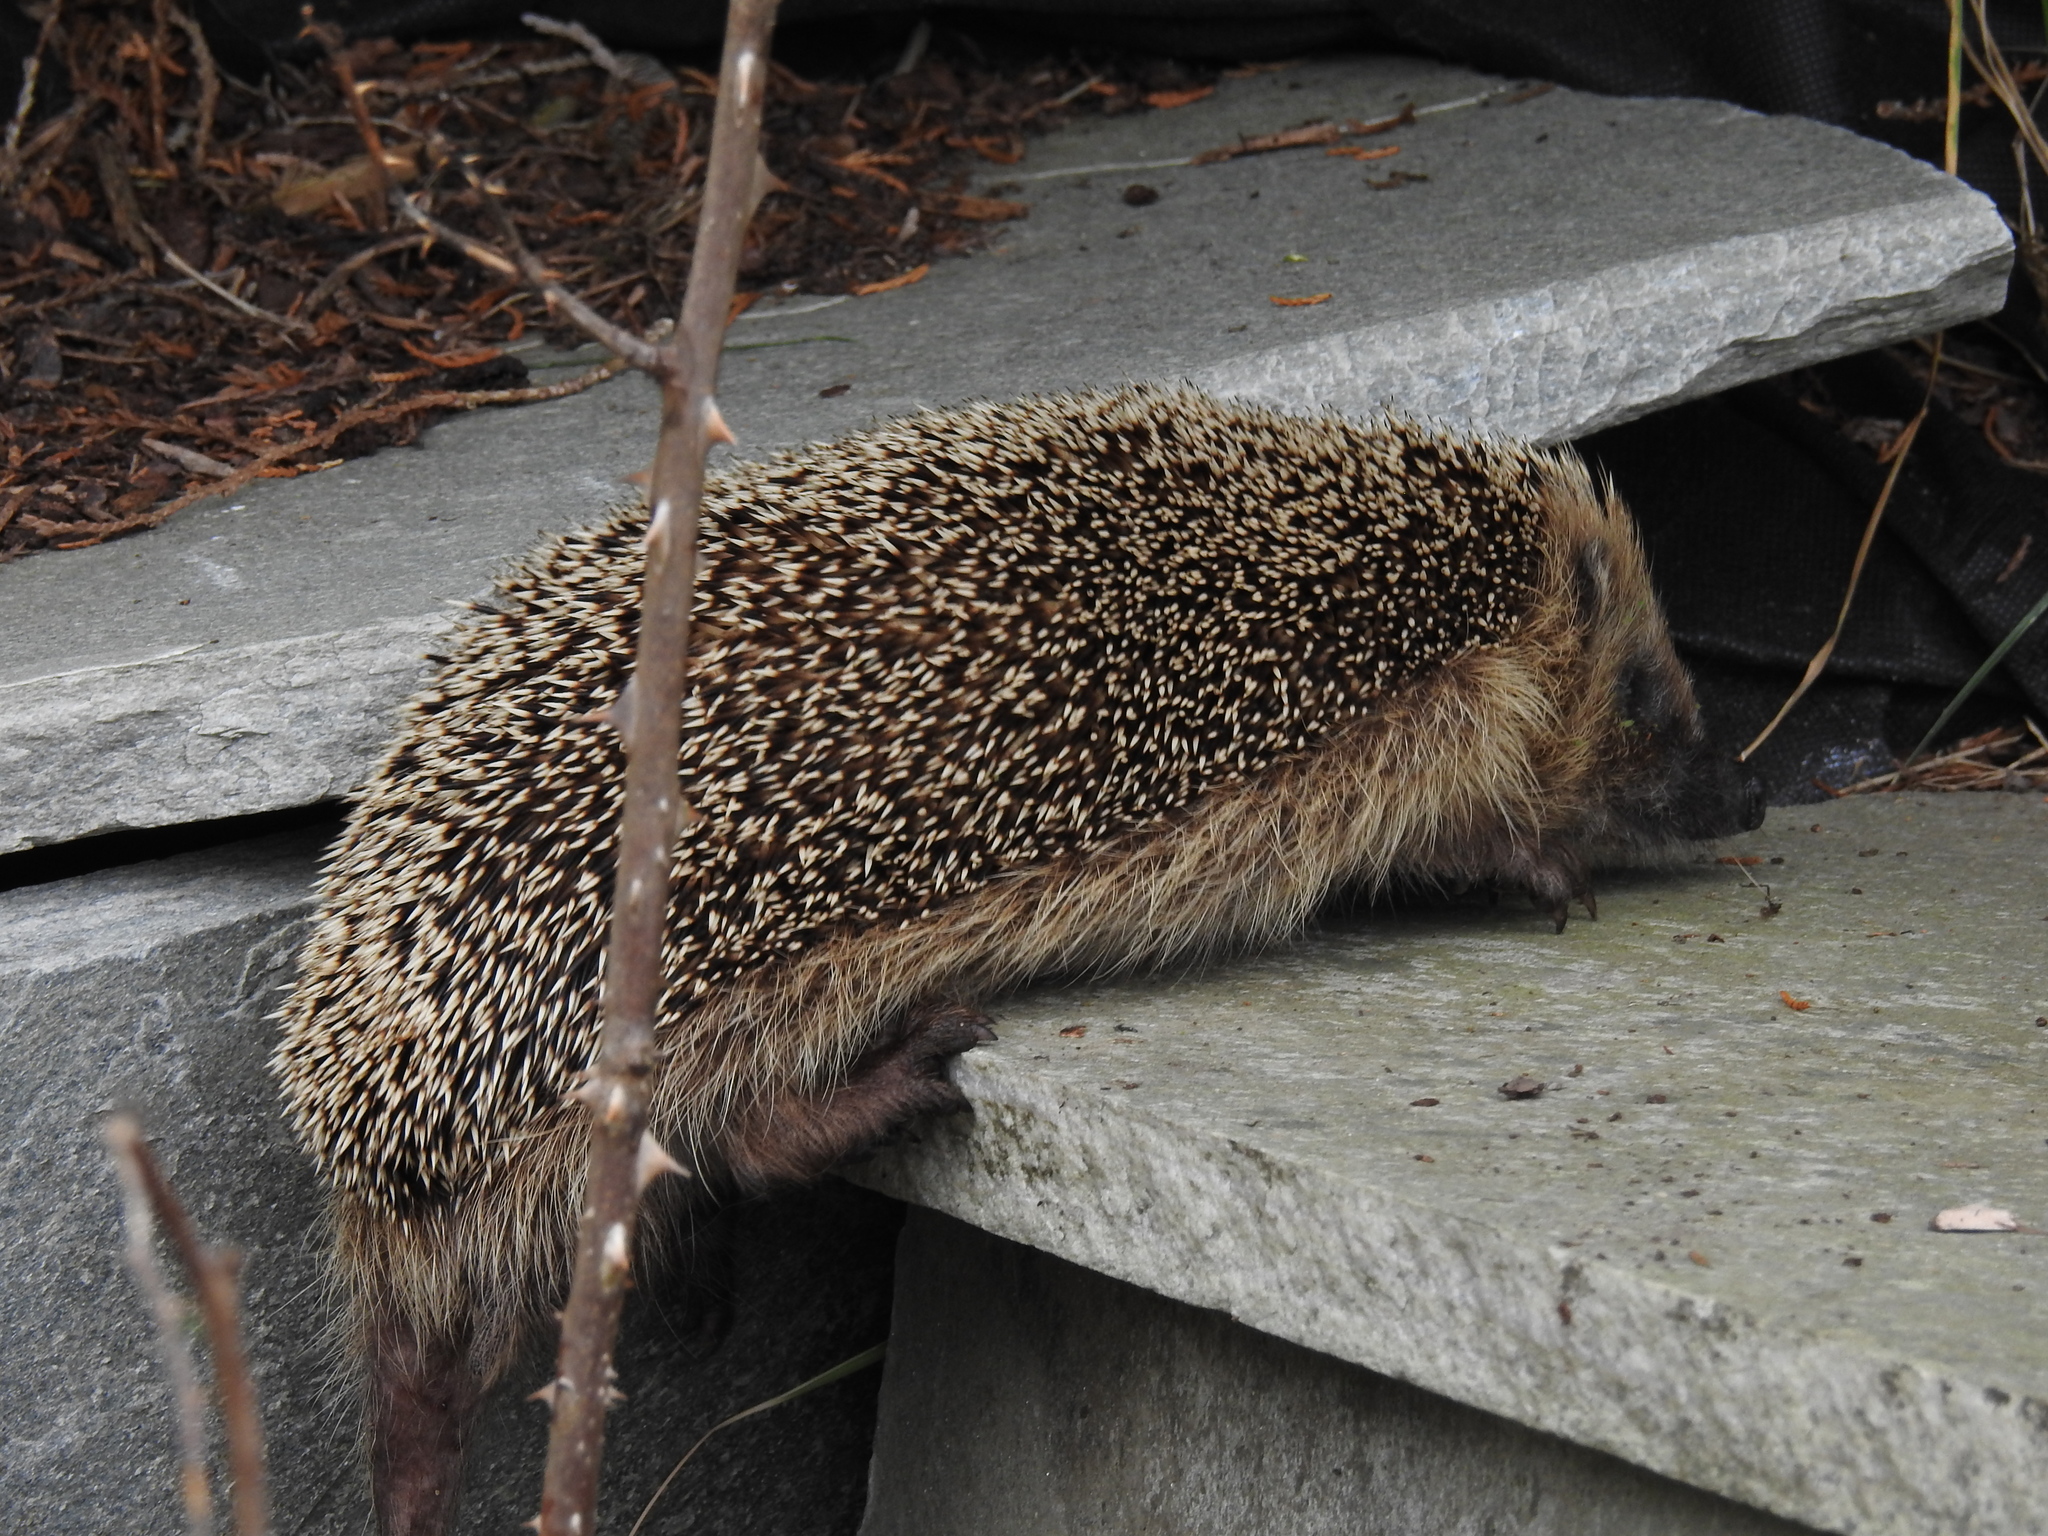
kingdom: Animalia
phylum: Chordata
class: Mammalia
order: Erinaceomorpha
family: Erinaceidae
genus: Erinaceus
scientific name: Erinaceus europaeus
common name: West european hedgehog
